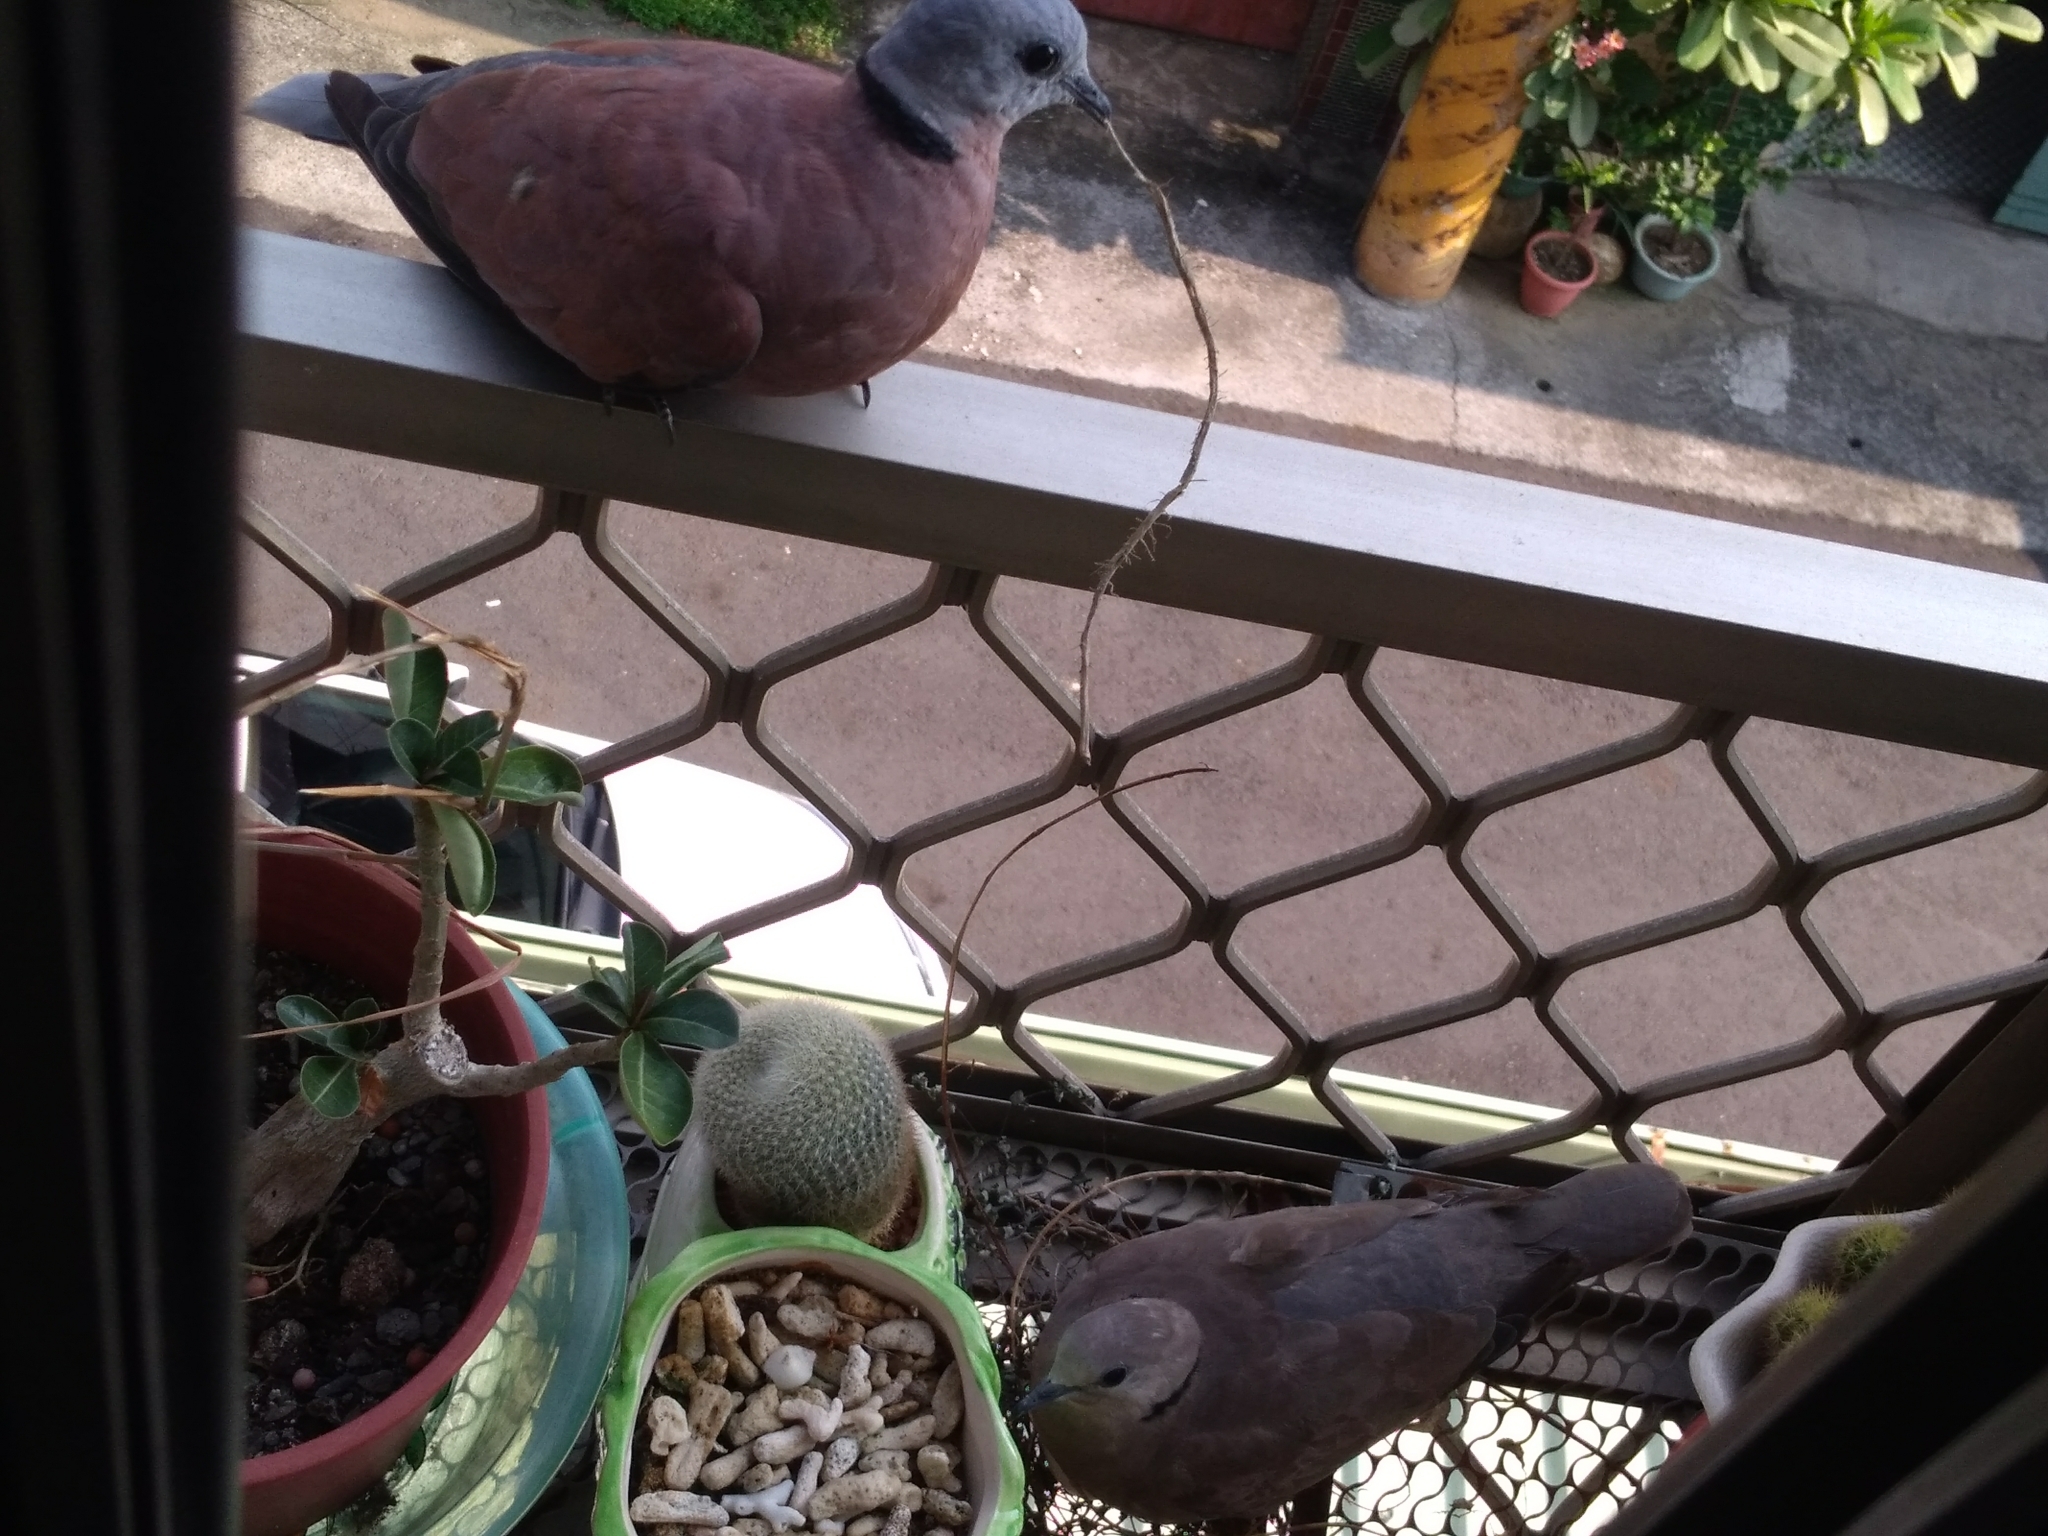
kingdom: Animalia
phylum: Chordata
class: Aves
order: Columbiformes
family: Columbidae
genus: Streptopelia
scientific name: Streptopelia tranquebarica
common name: Red turtle dove
